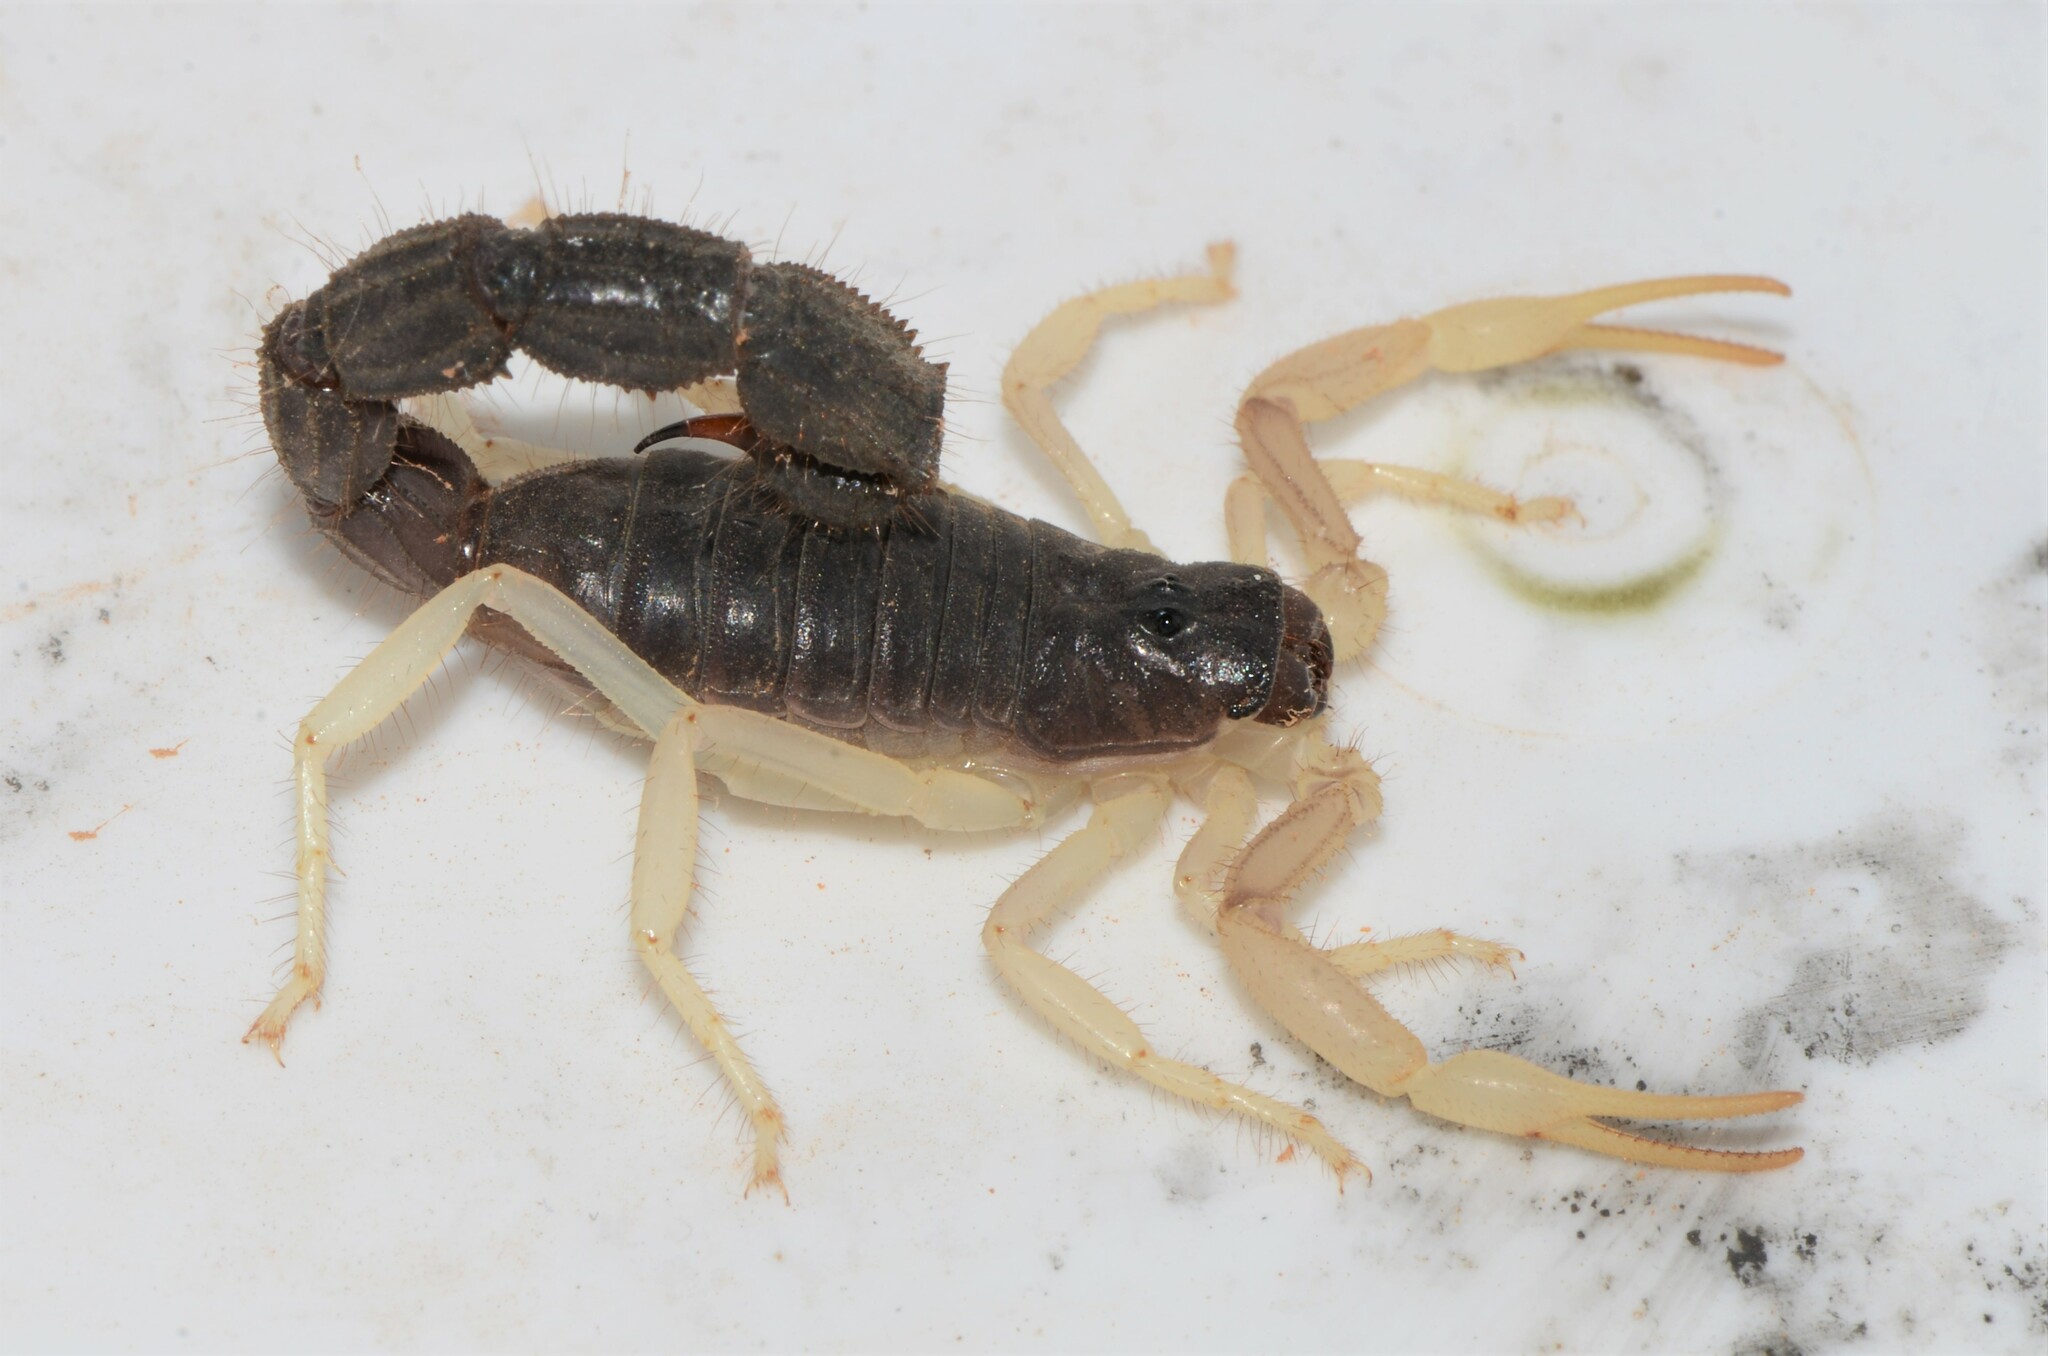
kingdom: Animalia
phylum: Arthropoda
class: Arachnida
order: Scorpiones
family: Buthidae
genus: Parabuthus
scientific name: Parabuthus schlechteri
